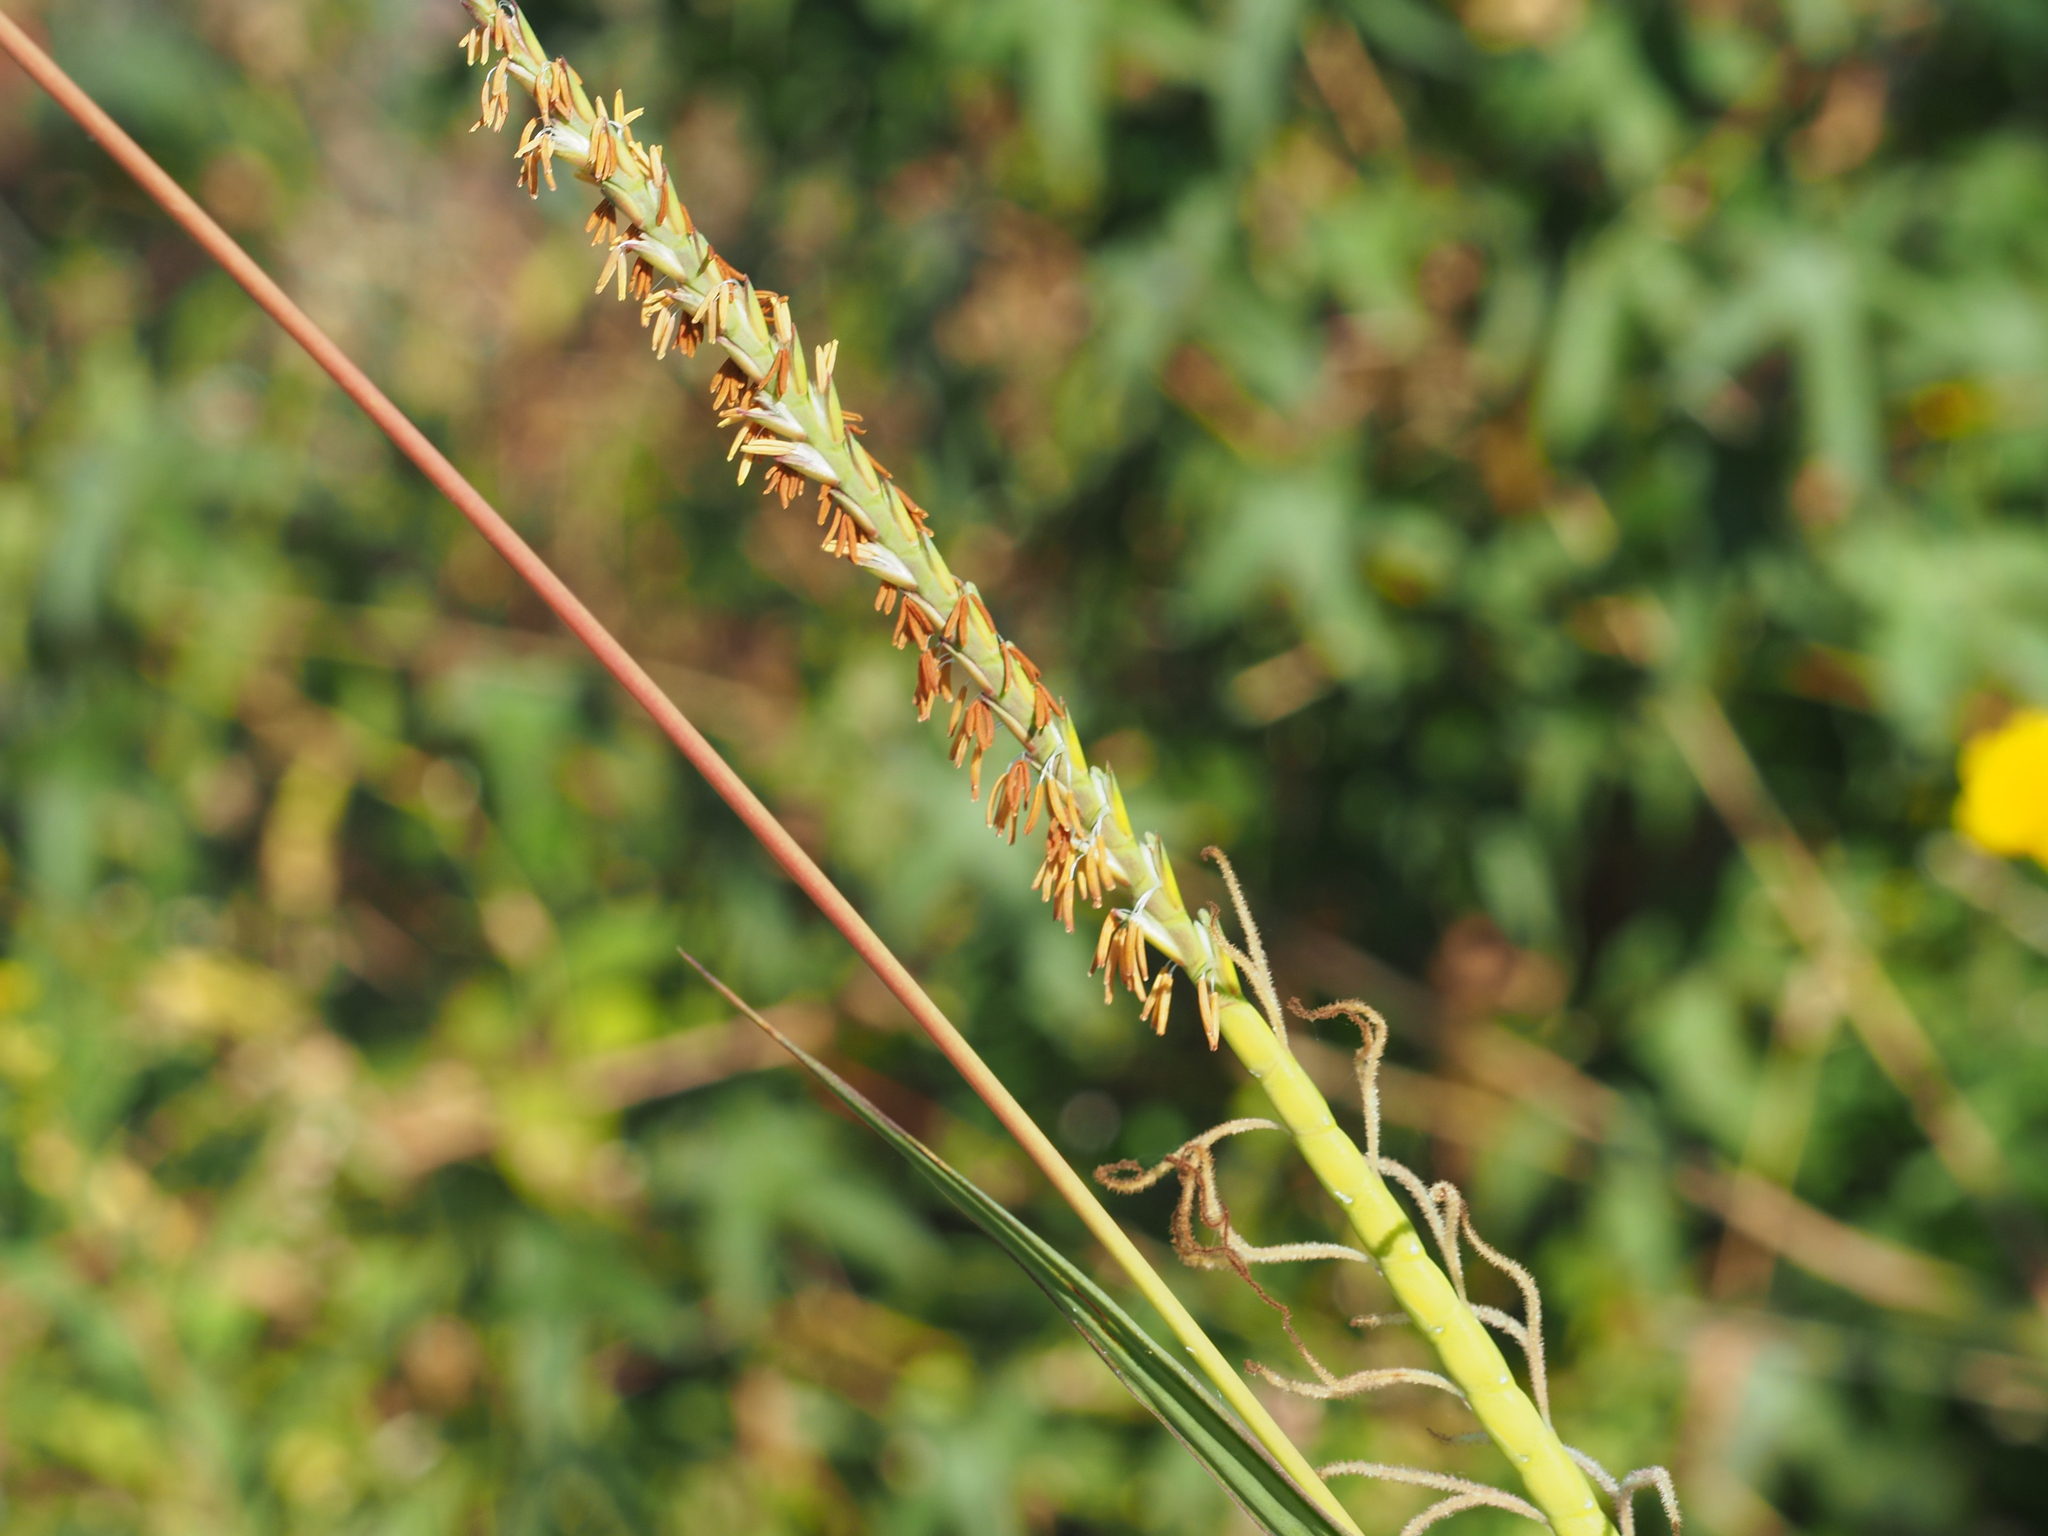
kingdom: Plantae
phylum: Tracheophyta
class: Liliopsida
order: Poales
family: Poaceae
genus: Tripsacum
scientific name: Tripsacum dactyloides
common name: Buffalo-grass
